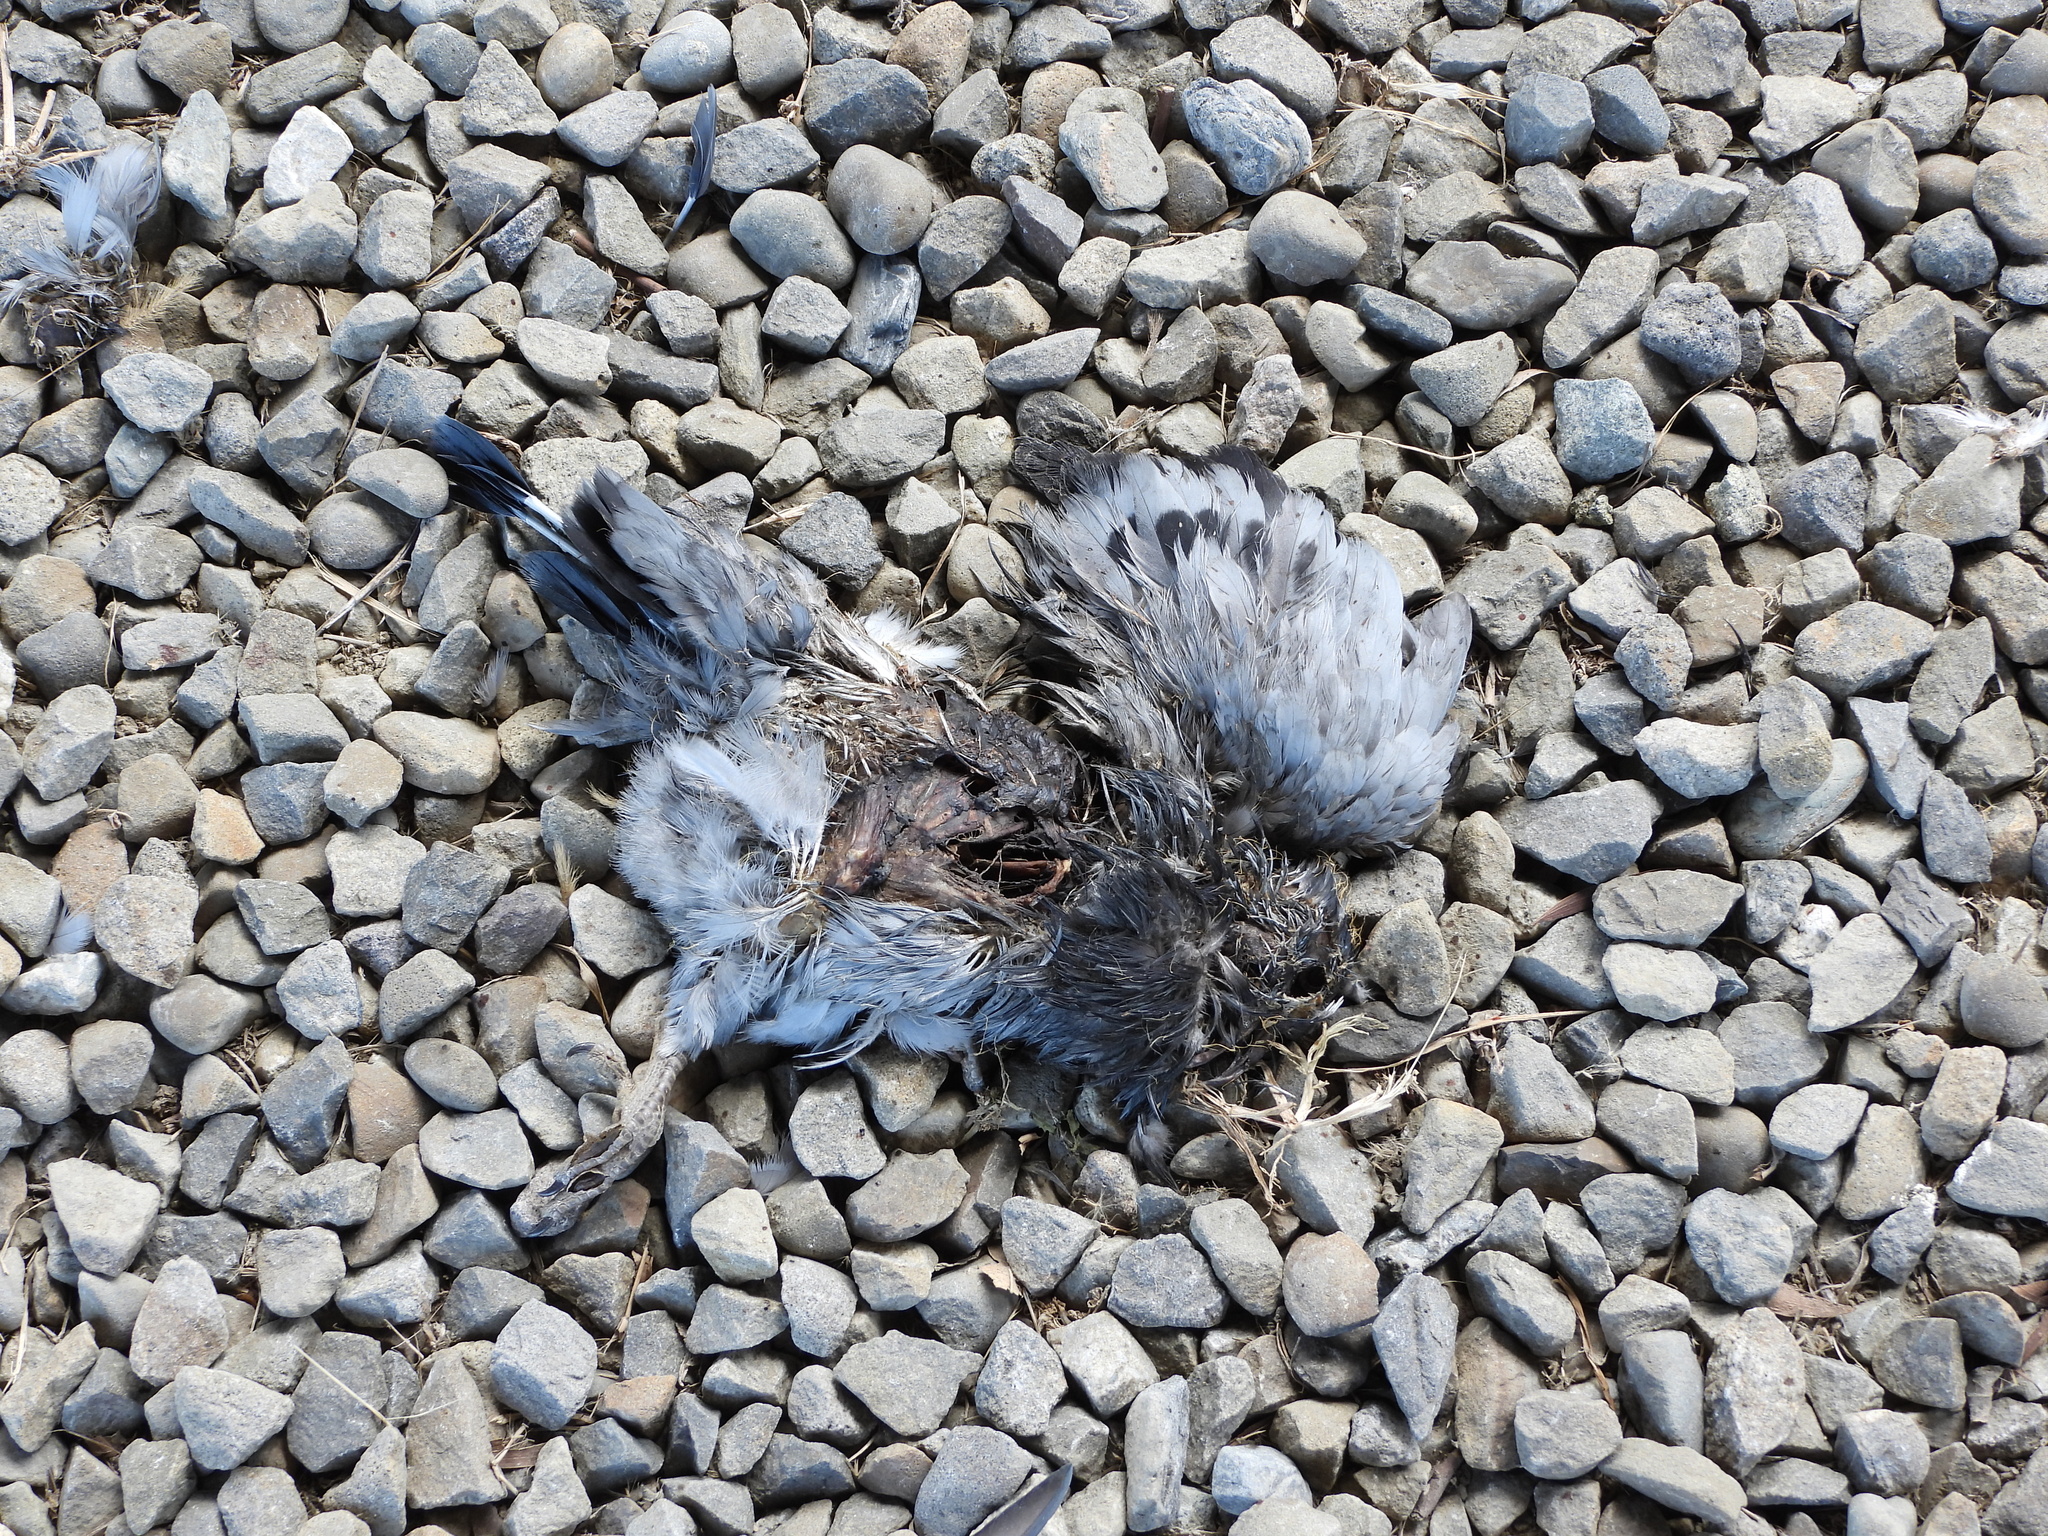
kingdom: Animalia
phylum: Chordata
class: Aves
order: Columbiformes
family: Columbidae
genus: Columba
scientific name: Columba livia
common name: Rock pigeon
